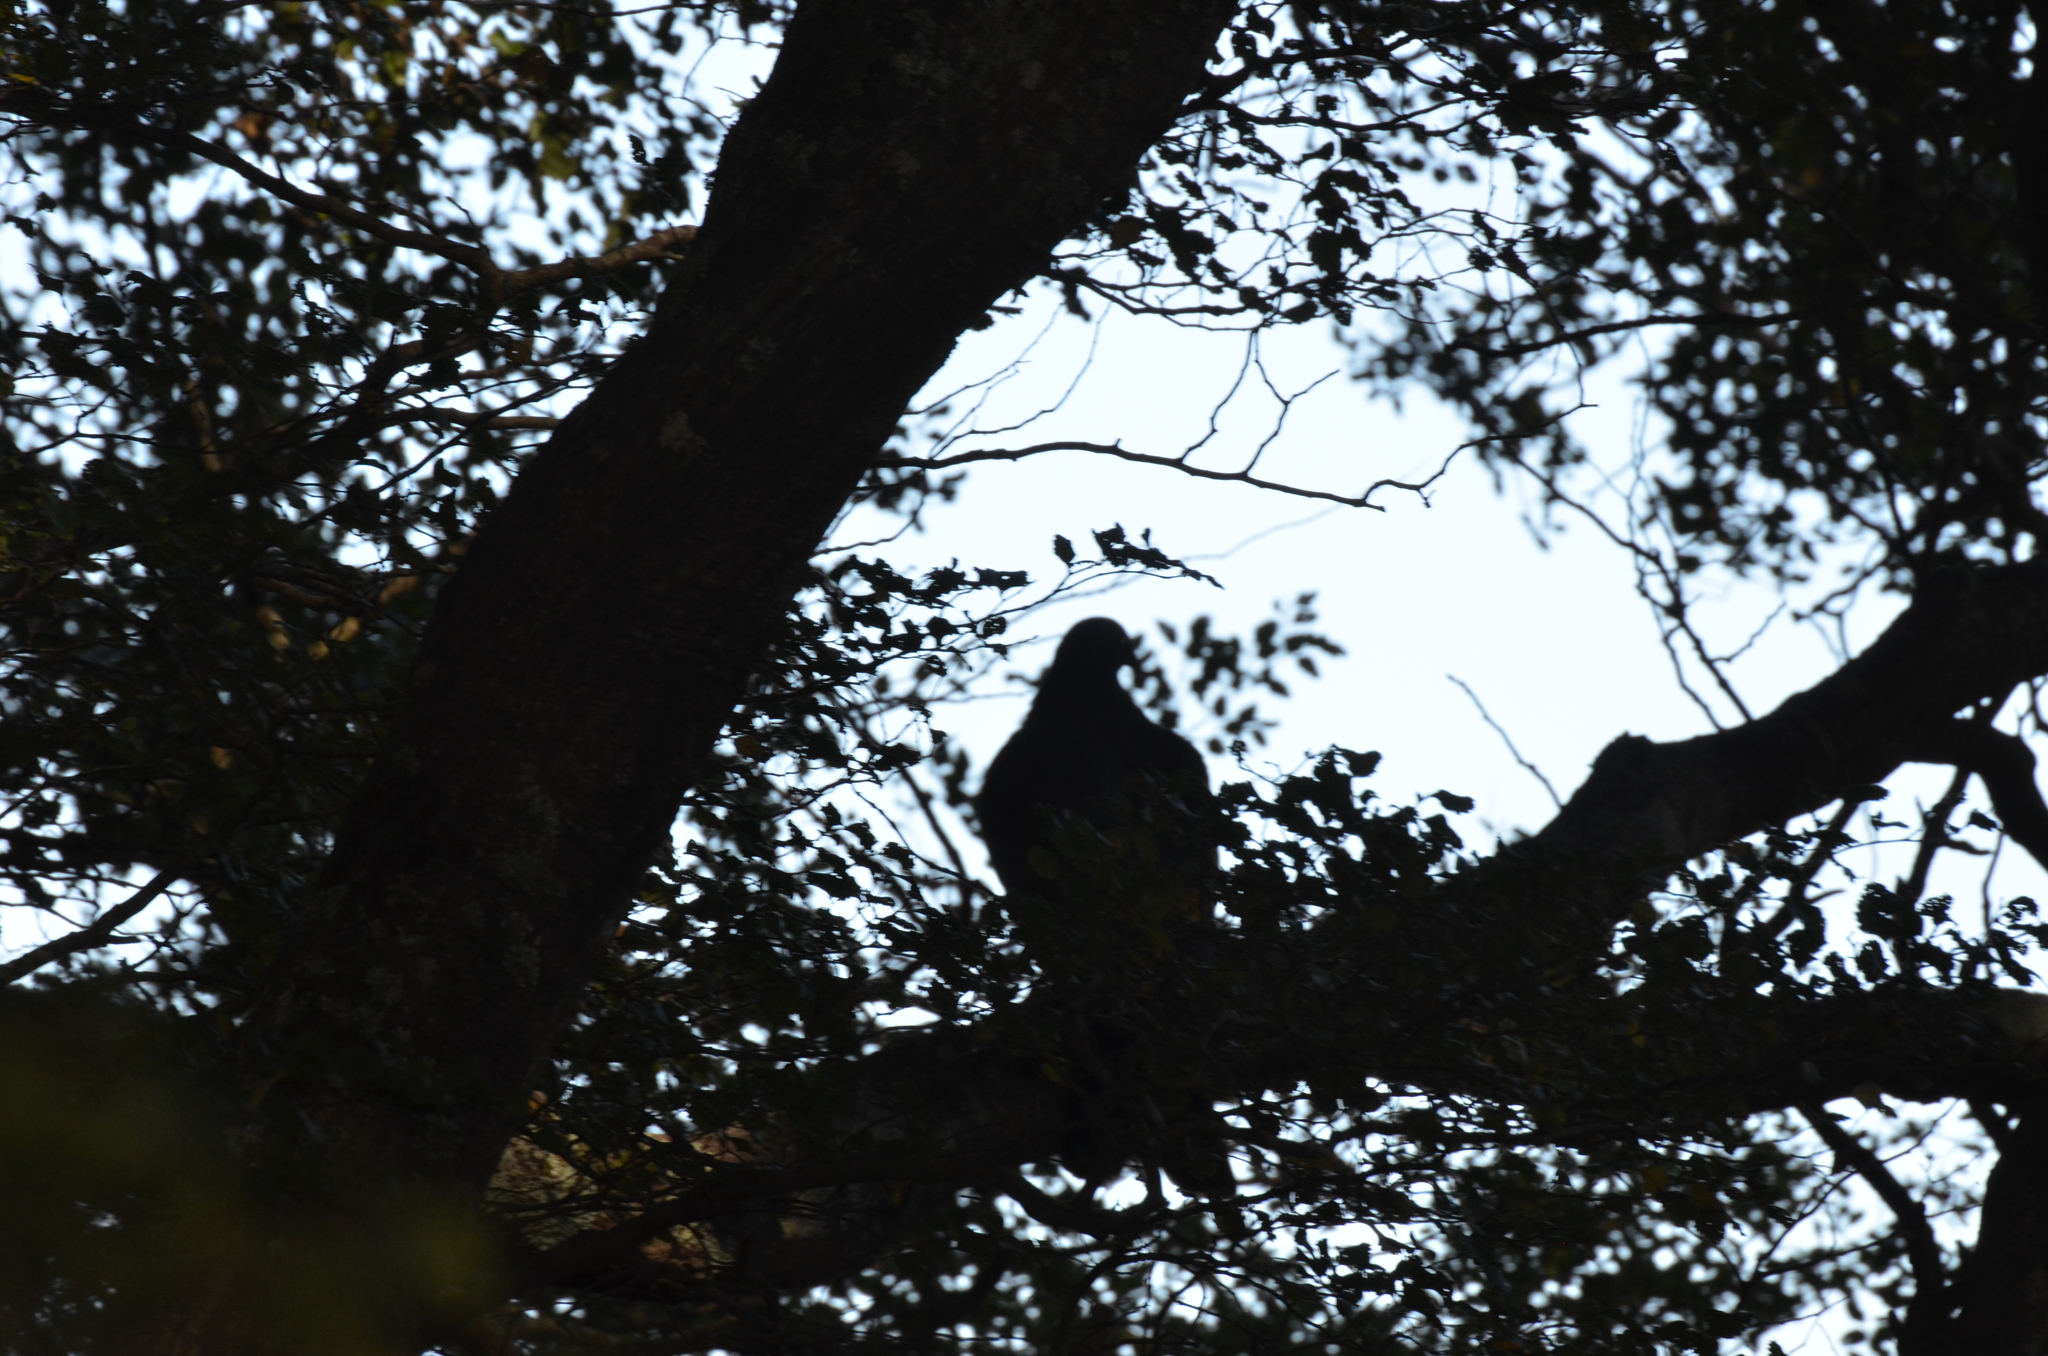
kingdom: Animalia
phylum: Chordata
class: Aves
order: Columbiformes
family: Columbidae
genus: Hemiphaga
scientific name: Hemiphaga novaeseelandiae
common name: New zealand pigeon
